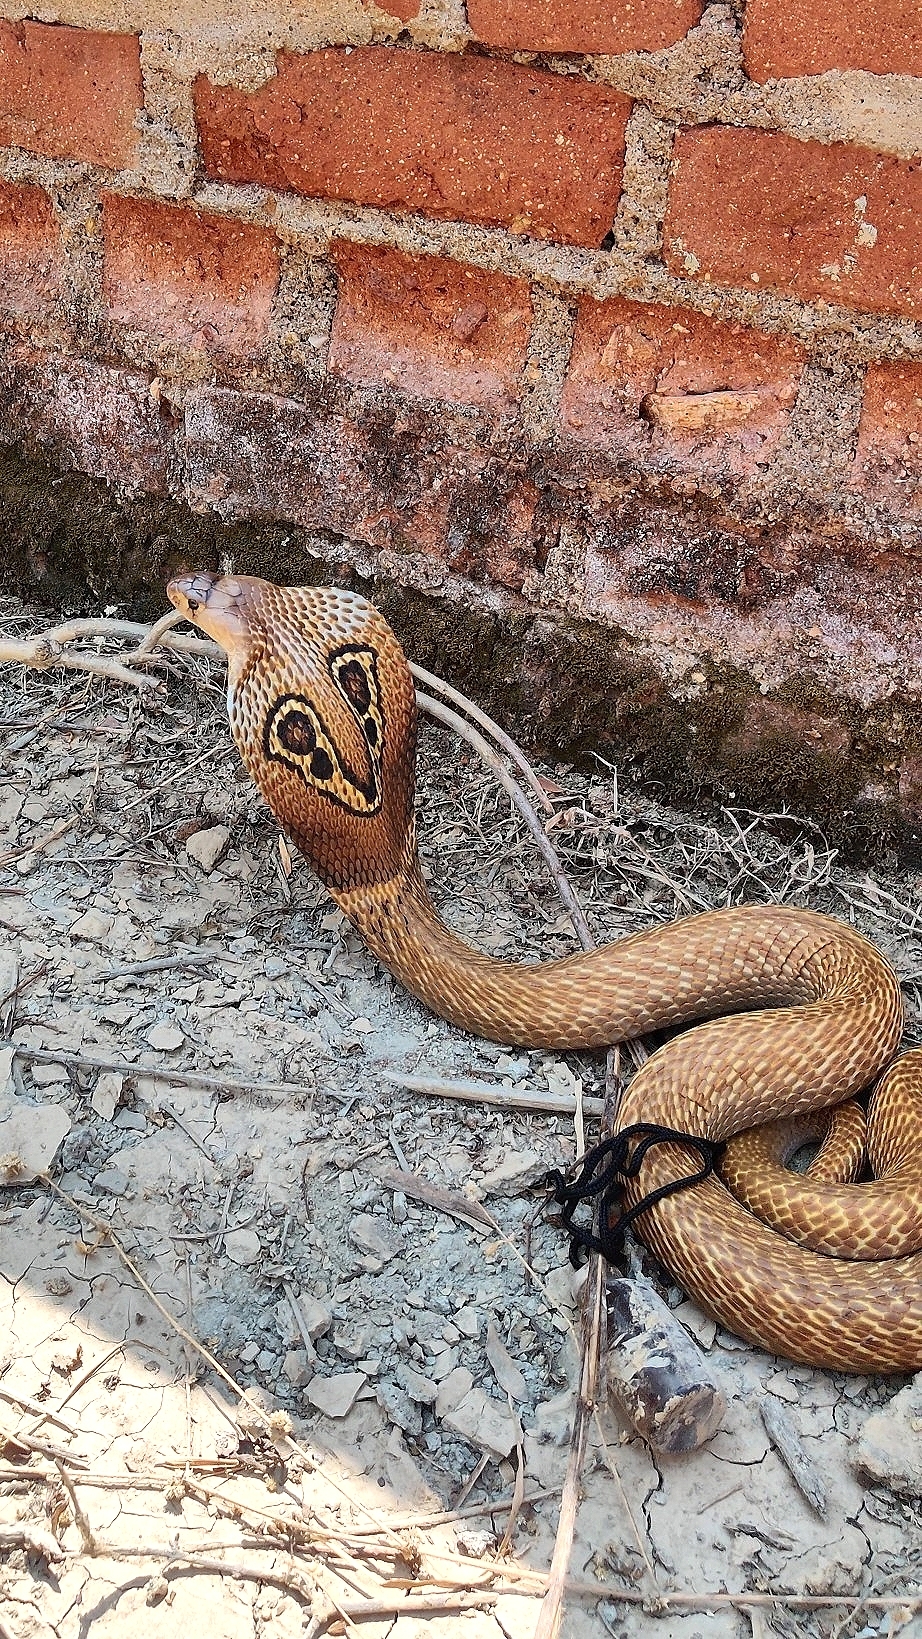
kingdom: Animalia
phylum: Chordata
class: Squamata
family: Elapidae
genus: Naja
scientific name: Naja naja
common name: Indian cobra
